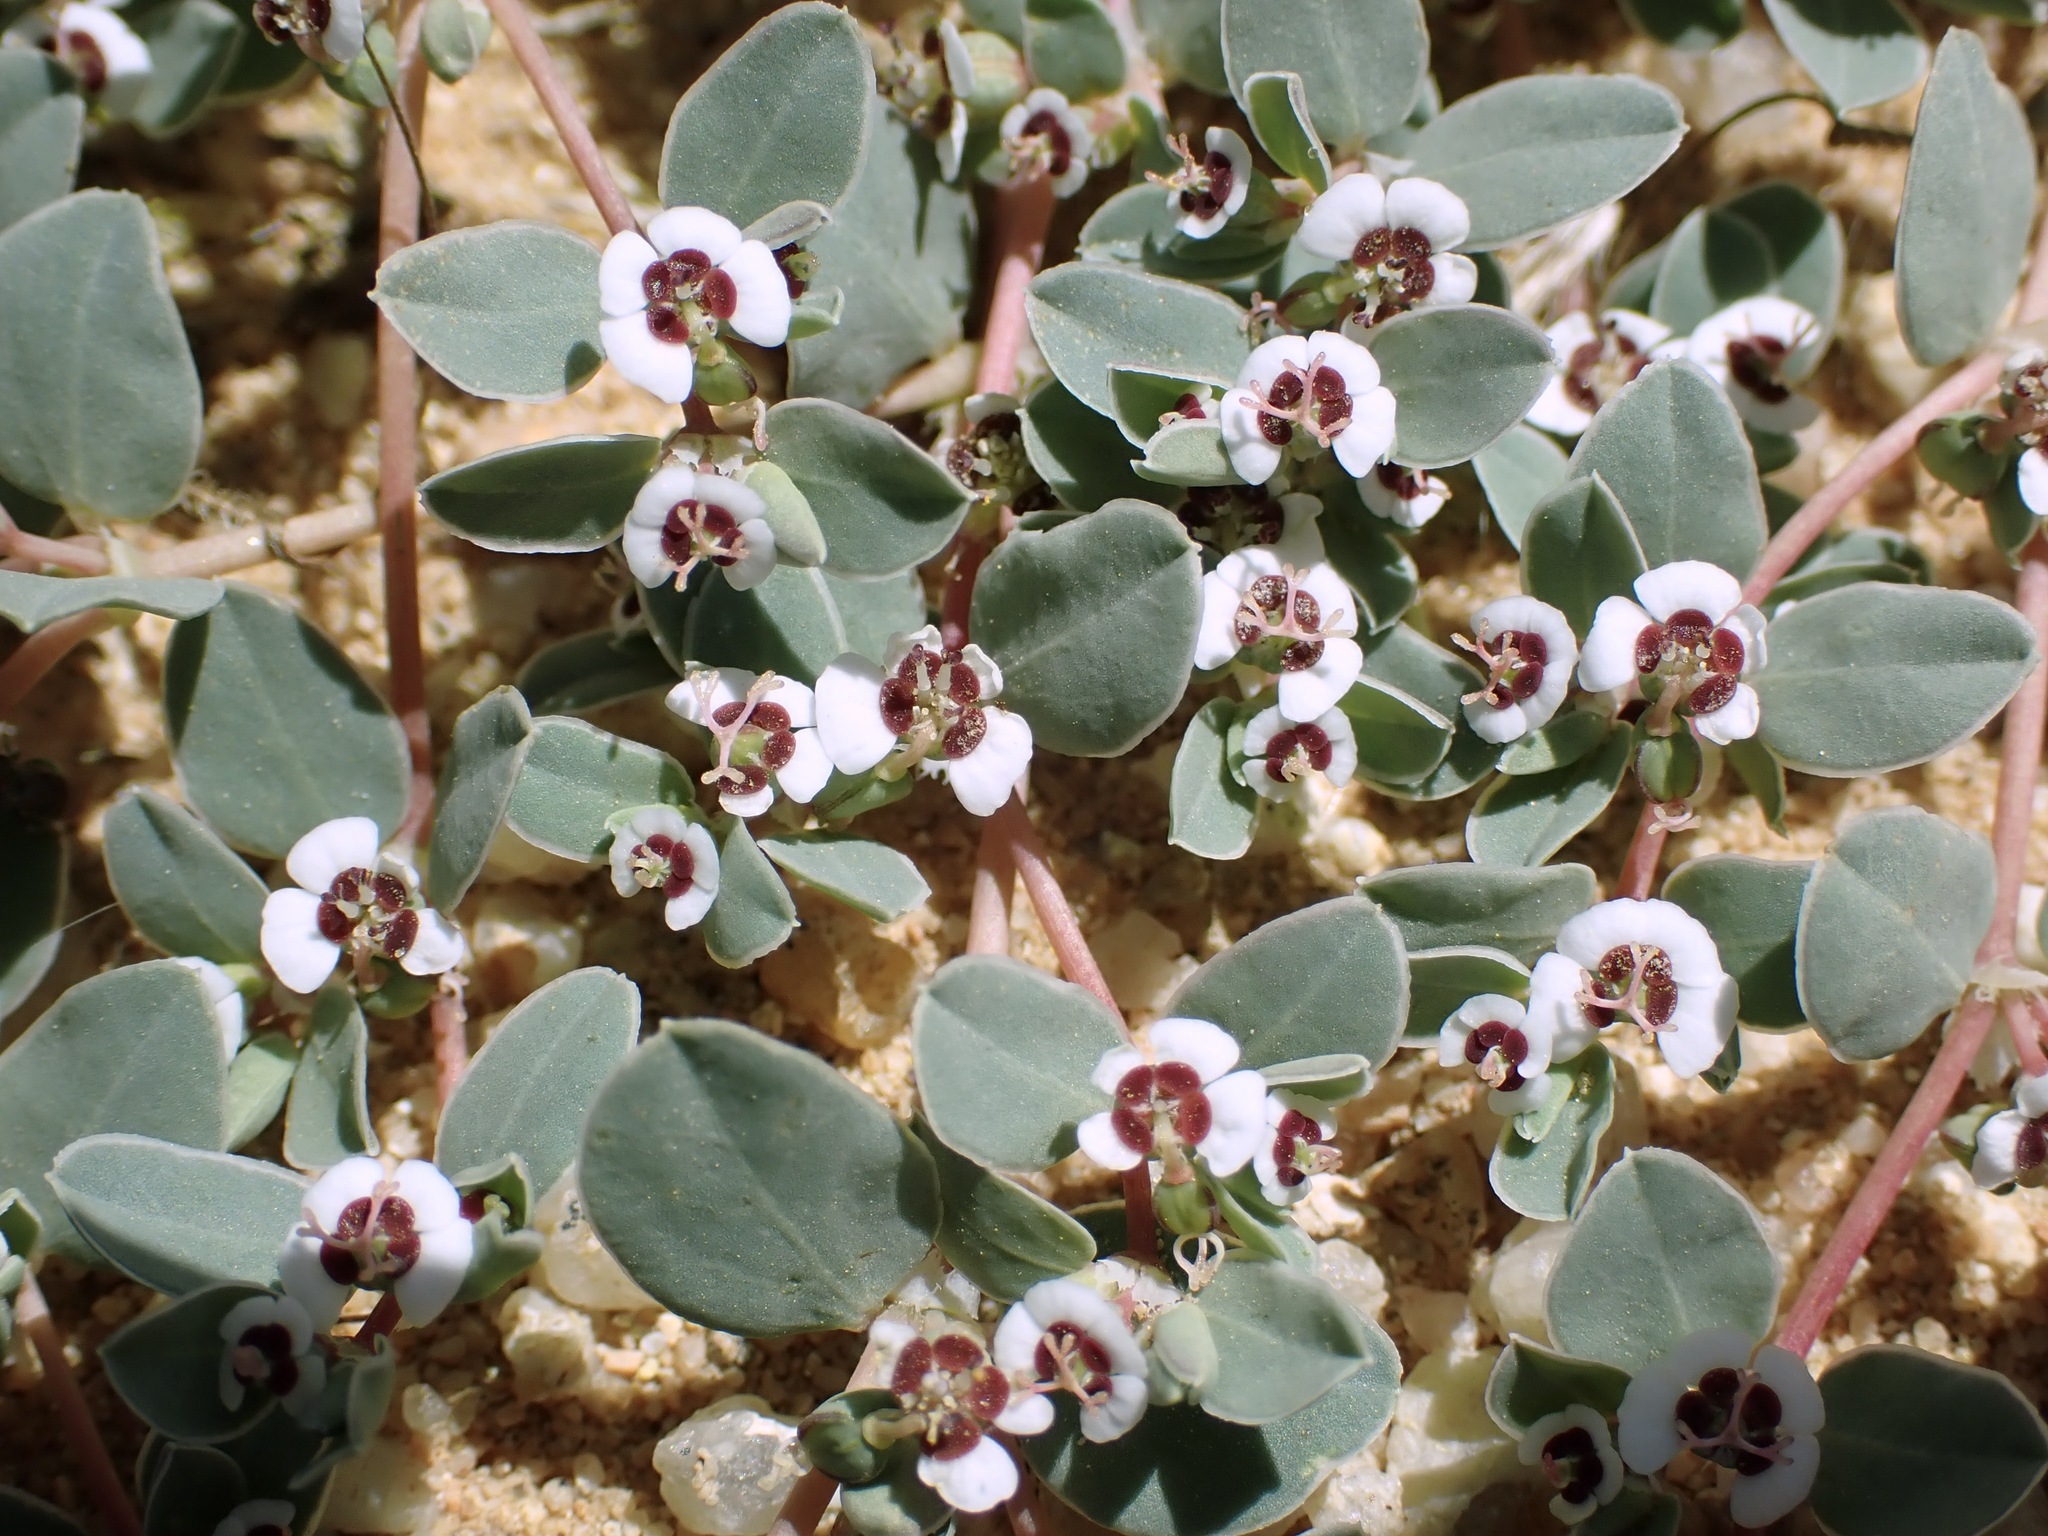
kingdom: Plantae
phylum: Tracheophyta
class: Magnoliopsida
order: Malpighiales
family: Euphorbiaceae
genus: Euphorbia
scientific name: Euphorbia albomarginata
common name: Whitemargin sandmat
